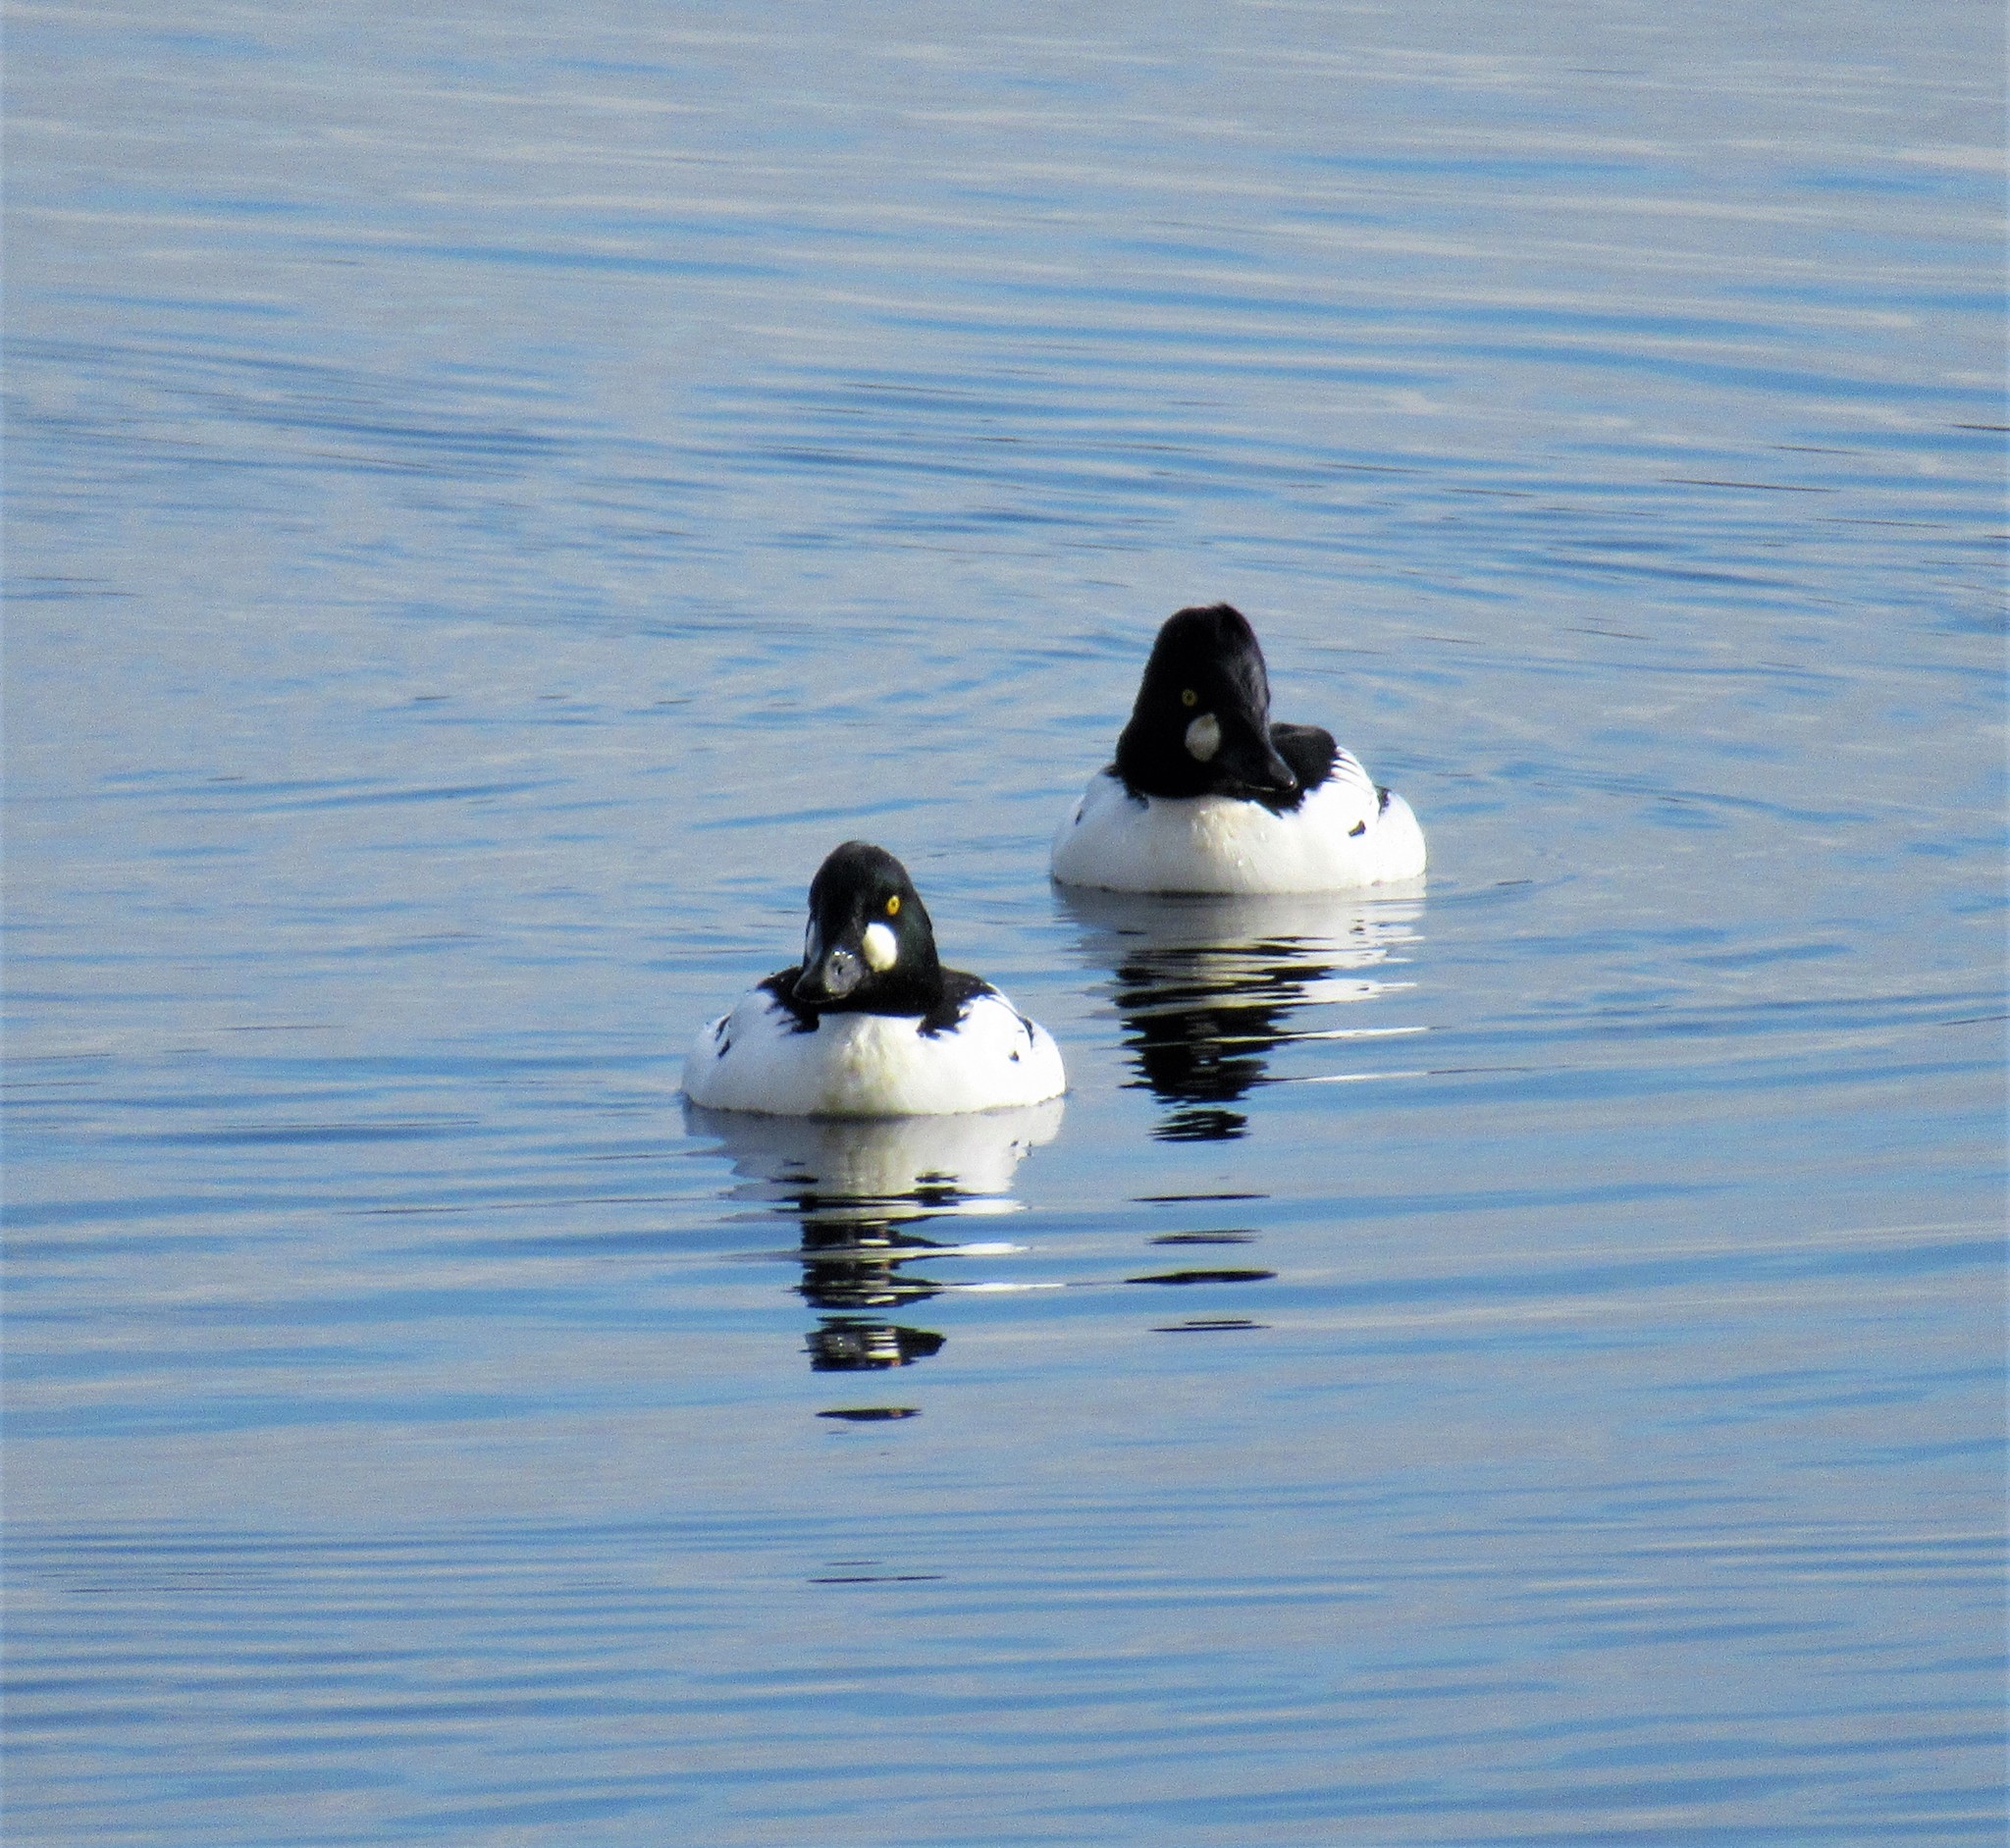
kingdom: Animalia
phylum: Chordata
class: Aves
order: Anseriformes
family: Anatidae
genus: Bucephala
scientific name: Bucephala clangula
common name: Common goldeneye
